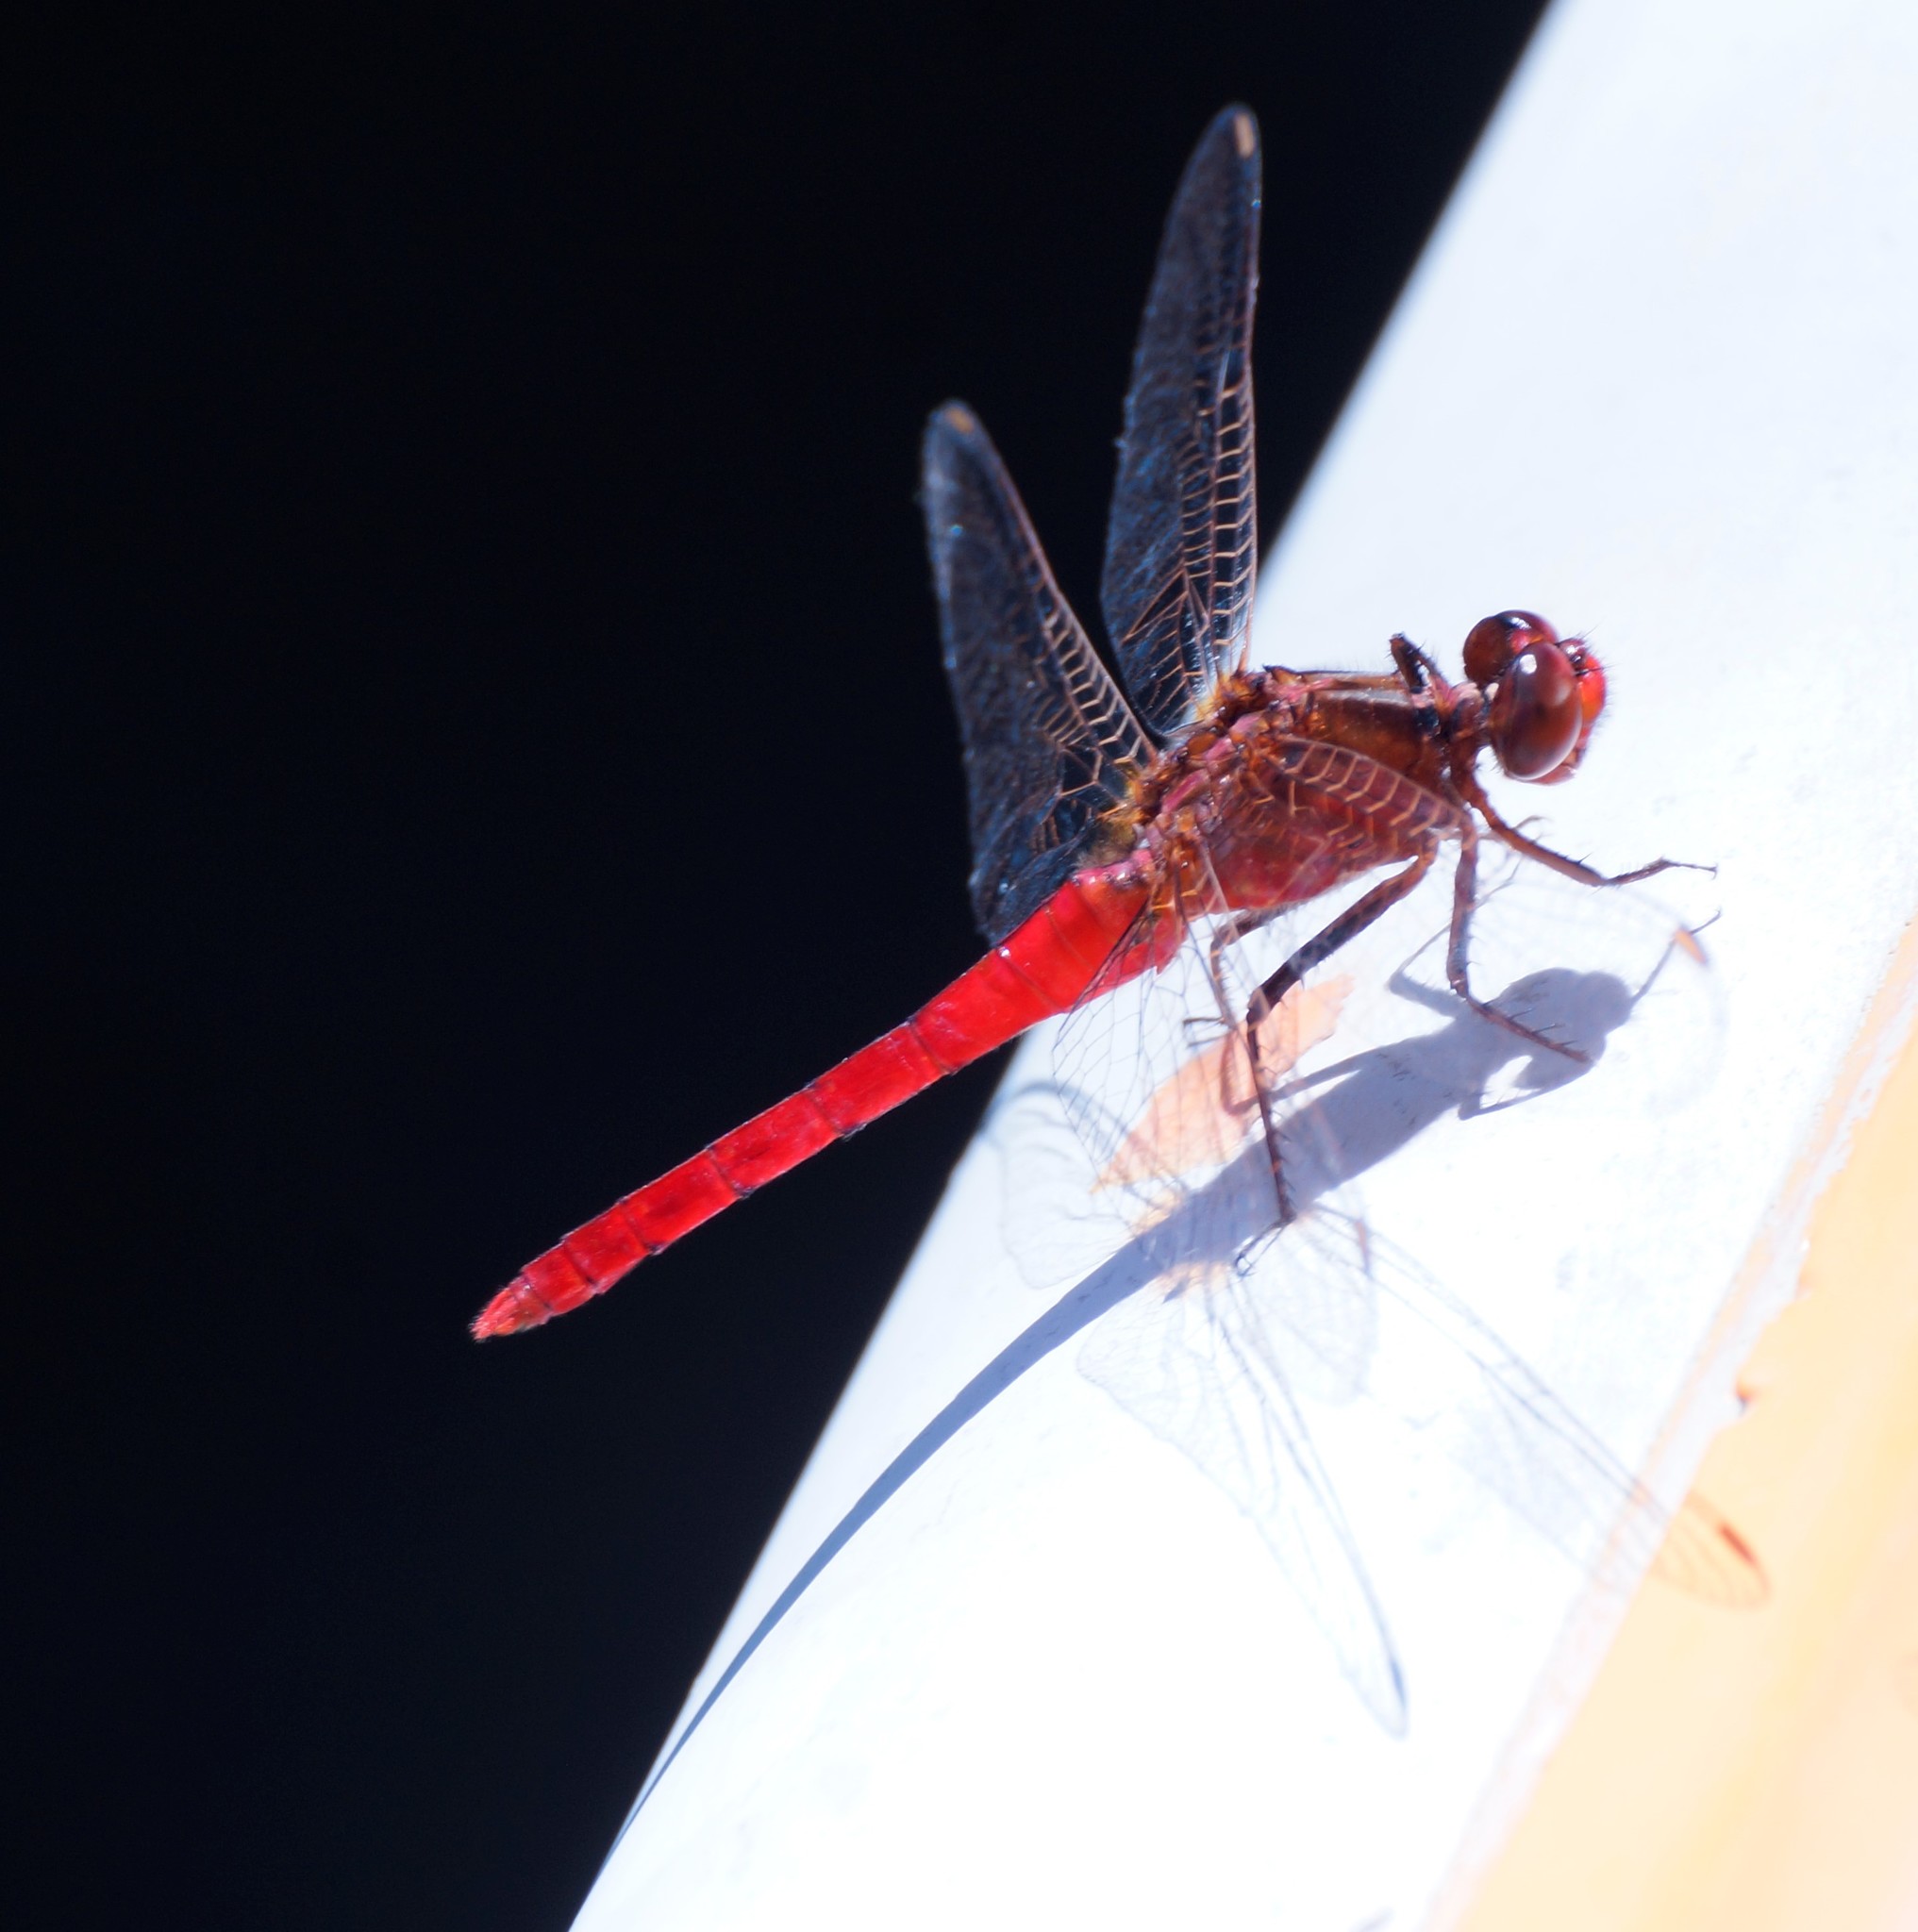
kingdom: Animalia
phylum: Arthropoda
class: Insecta
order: Odonata
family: Libellulidae
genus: Rhodothemis
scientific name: Rhodothemis lieftincki
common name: Red arrow
